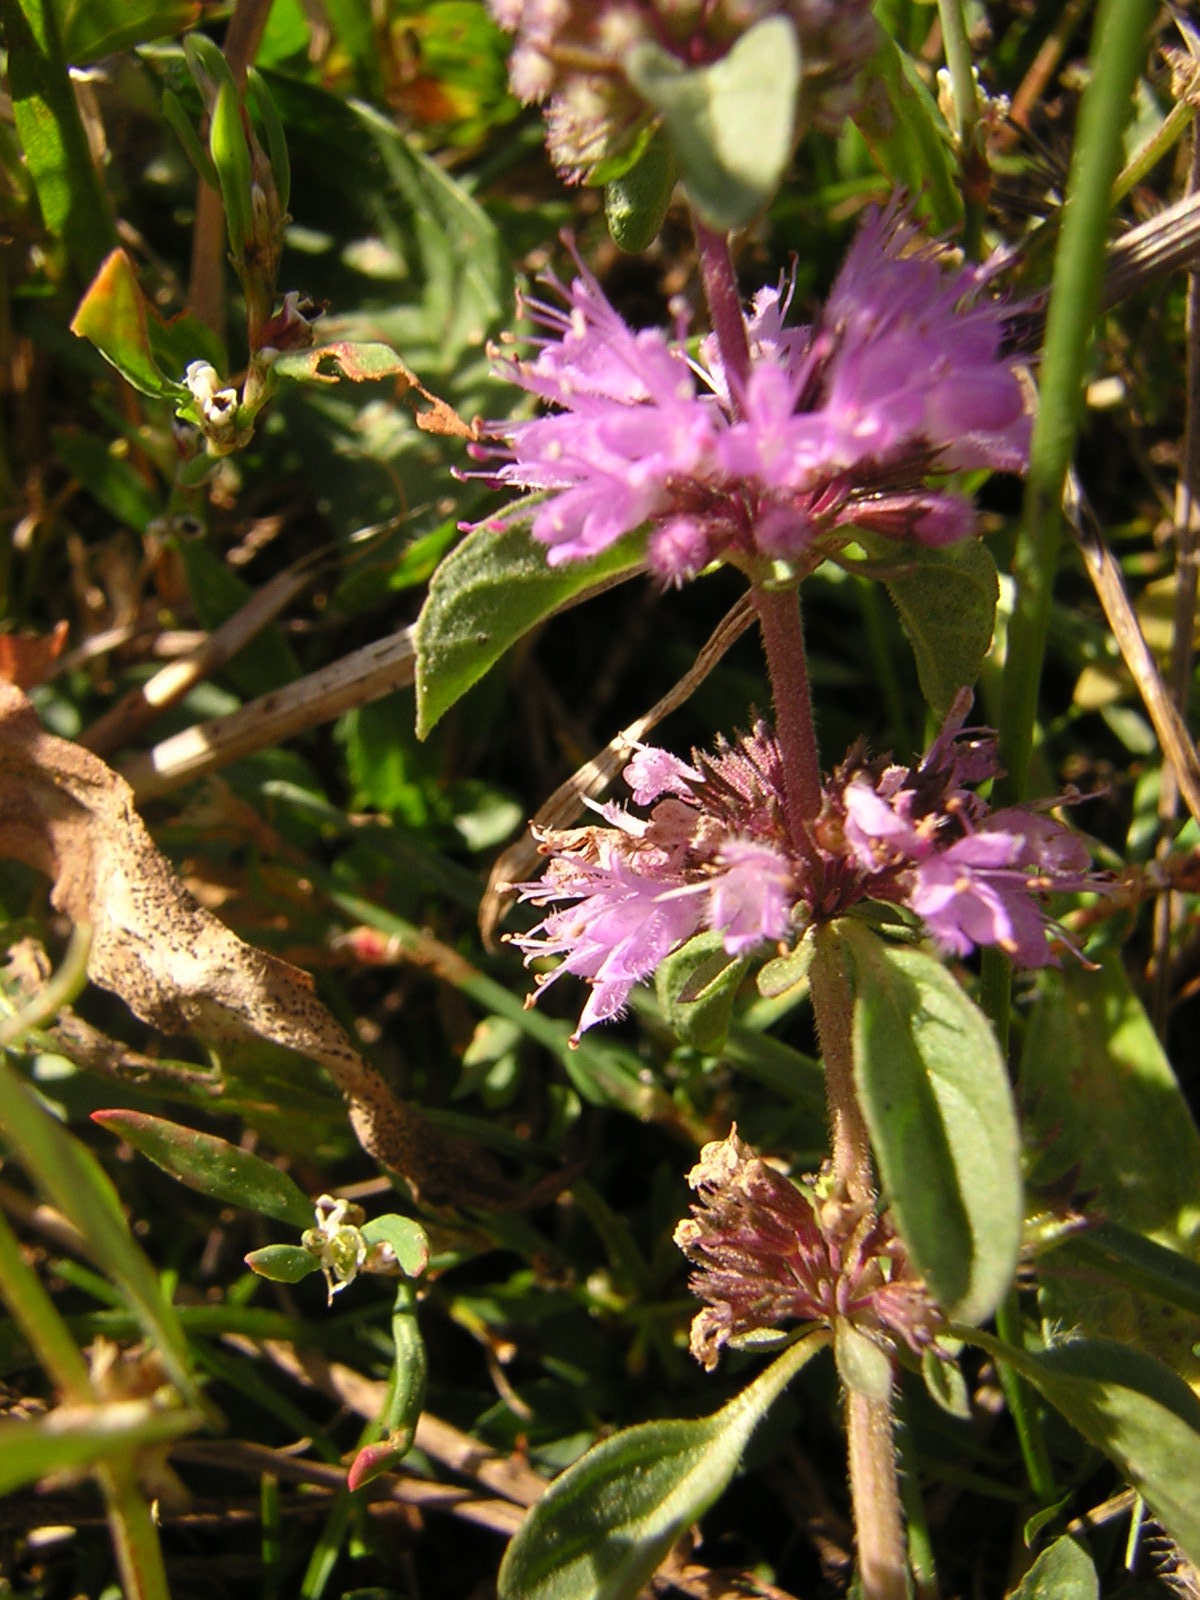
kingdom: Plantae
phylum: Tracheophyta
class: Magnoliopsida
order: Lamiales
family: Lamiaceae
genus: Mentha
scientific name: Mentha pulegium
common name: Pennyroyal
